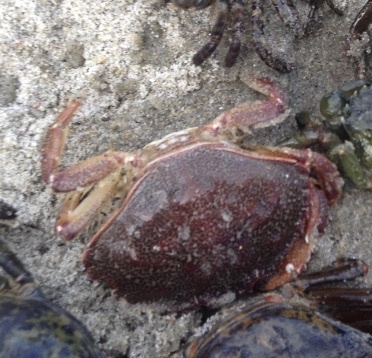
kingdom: Animalia
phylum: Arthropoda
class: Malacostraca
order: Decapoda
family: Cancridae
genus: Cancer
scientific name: Cancer irroratus
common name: Atlantic rock crab
